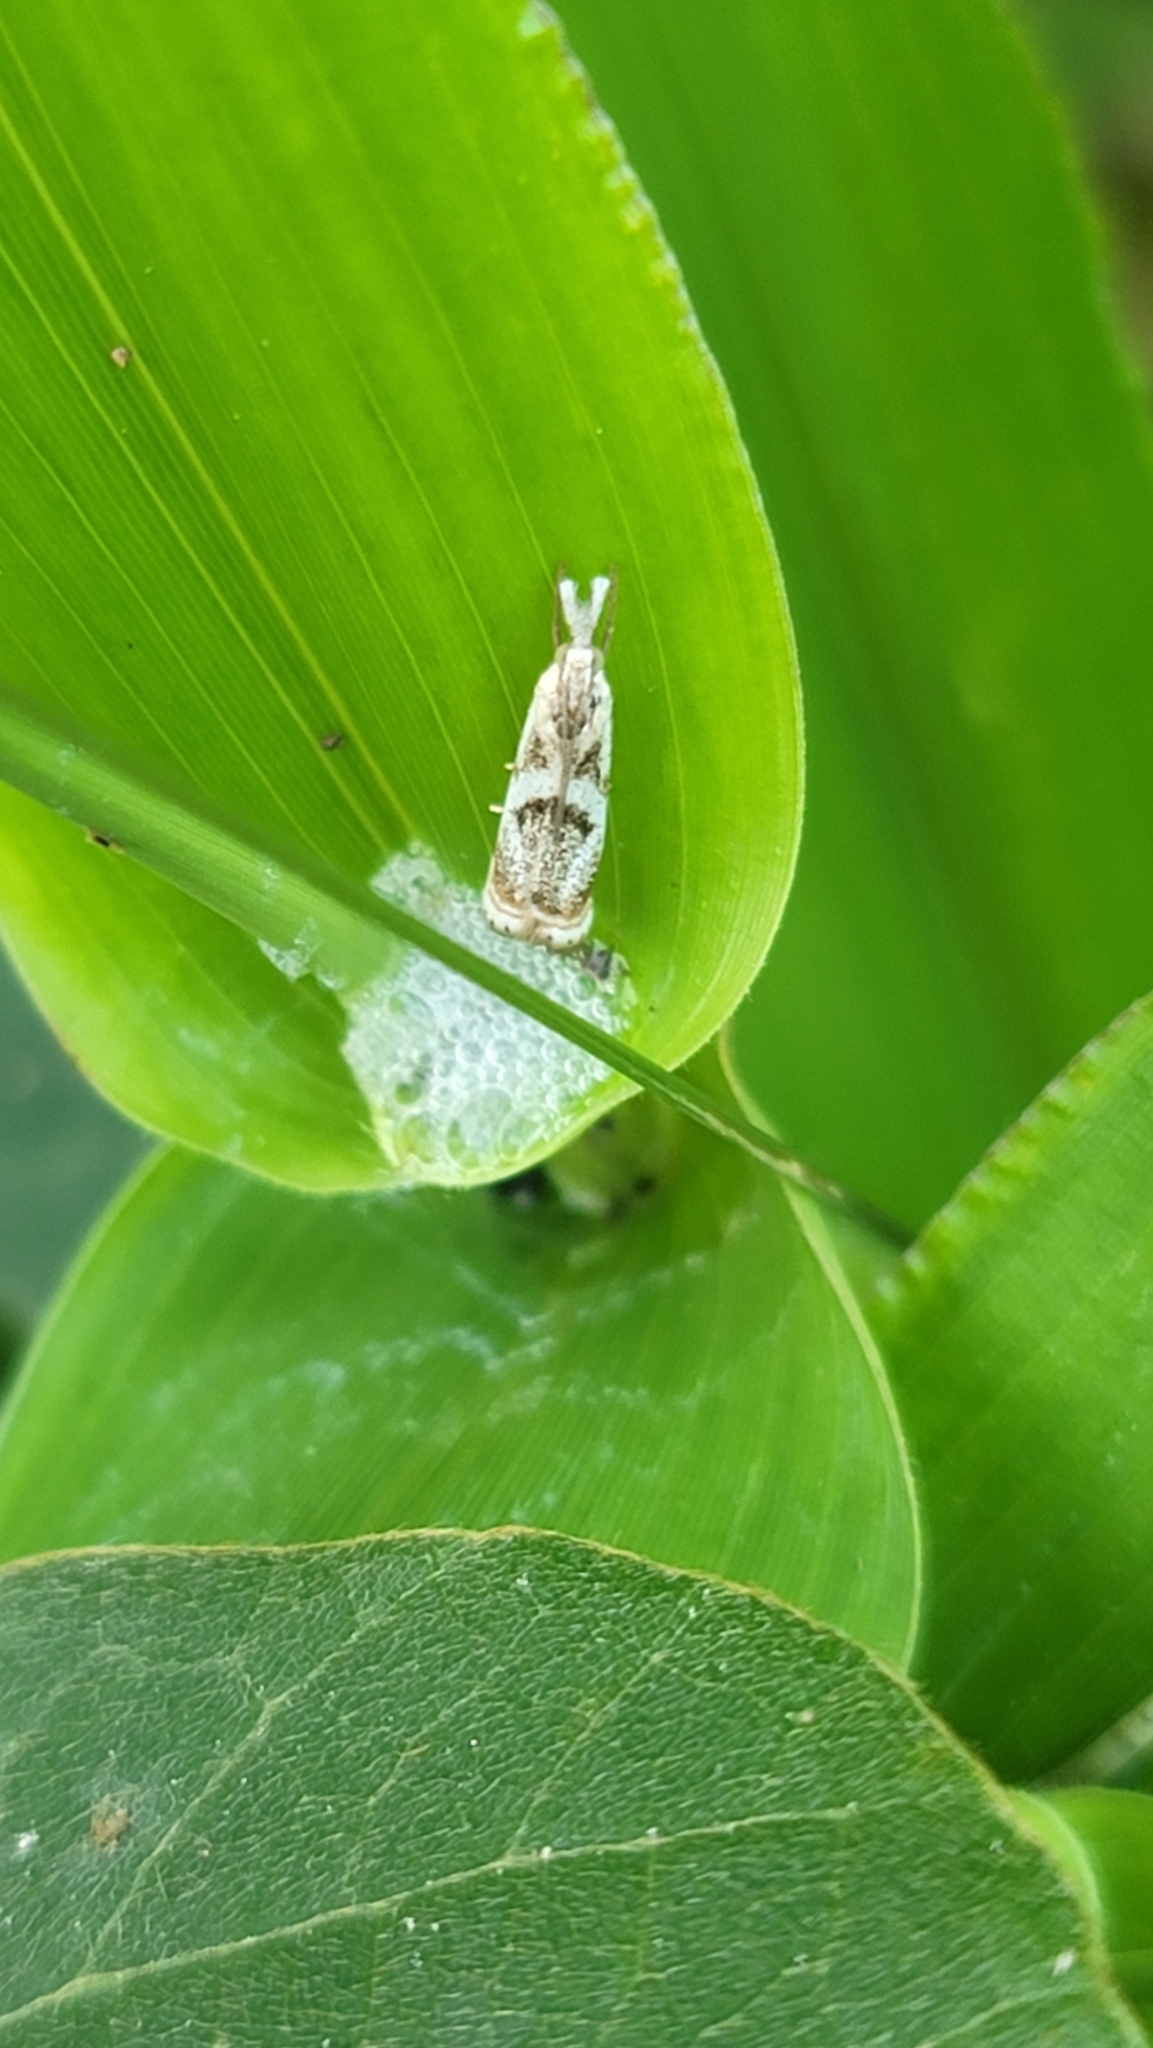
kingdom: Animalia
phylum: Arthropoda
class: Insecta
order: Lepidoptera
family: Crambidae
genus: Microcrambus
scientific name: Microcrambus elegans
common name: Elegant grass-veneer
